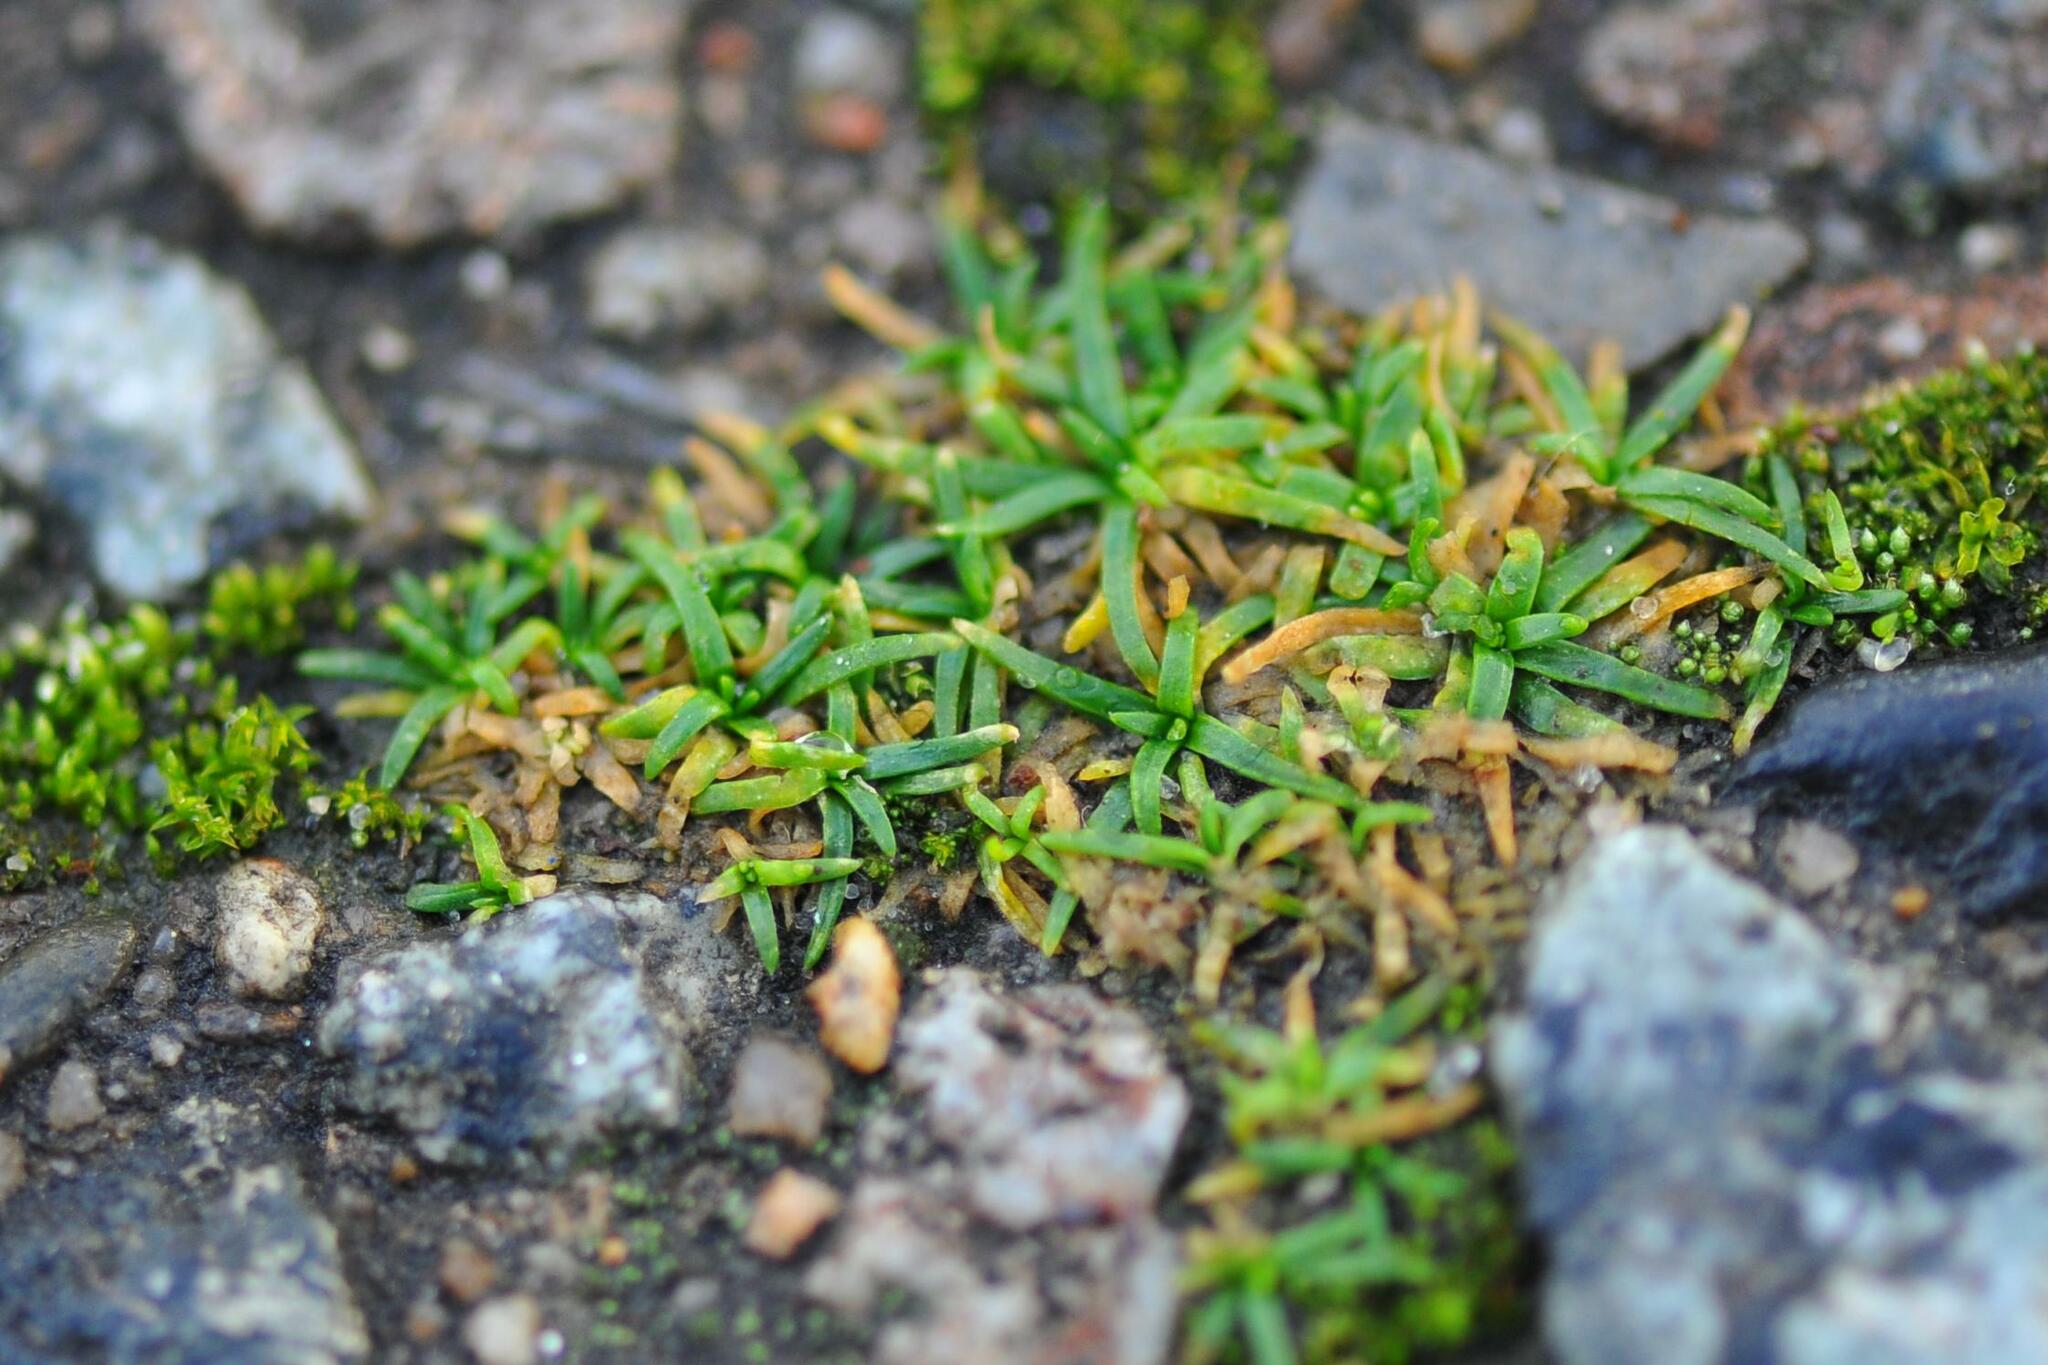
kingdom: Plantae
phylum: Tracheophyta
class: Magnoliopsida
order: Caryophyllales
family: Caryophyllaceae
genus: Sagina
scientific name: Sagina procumbens
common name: Procumbent pearlwort
